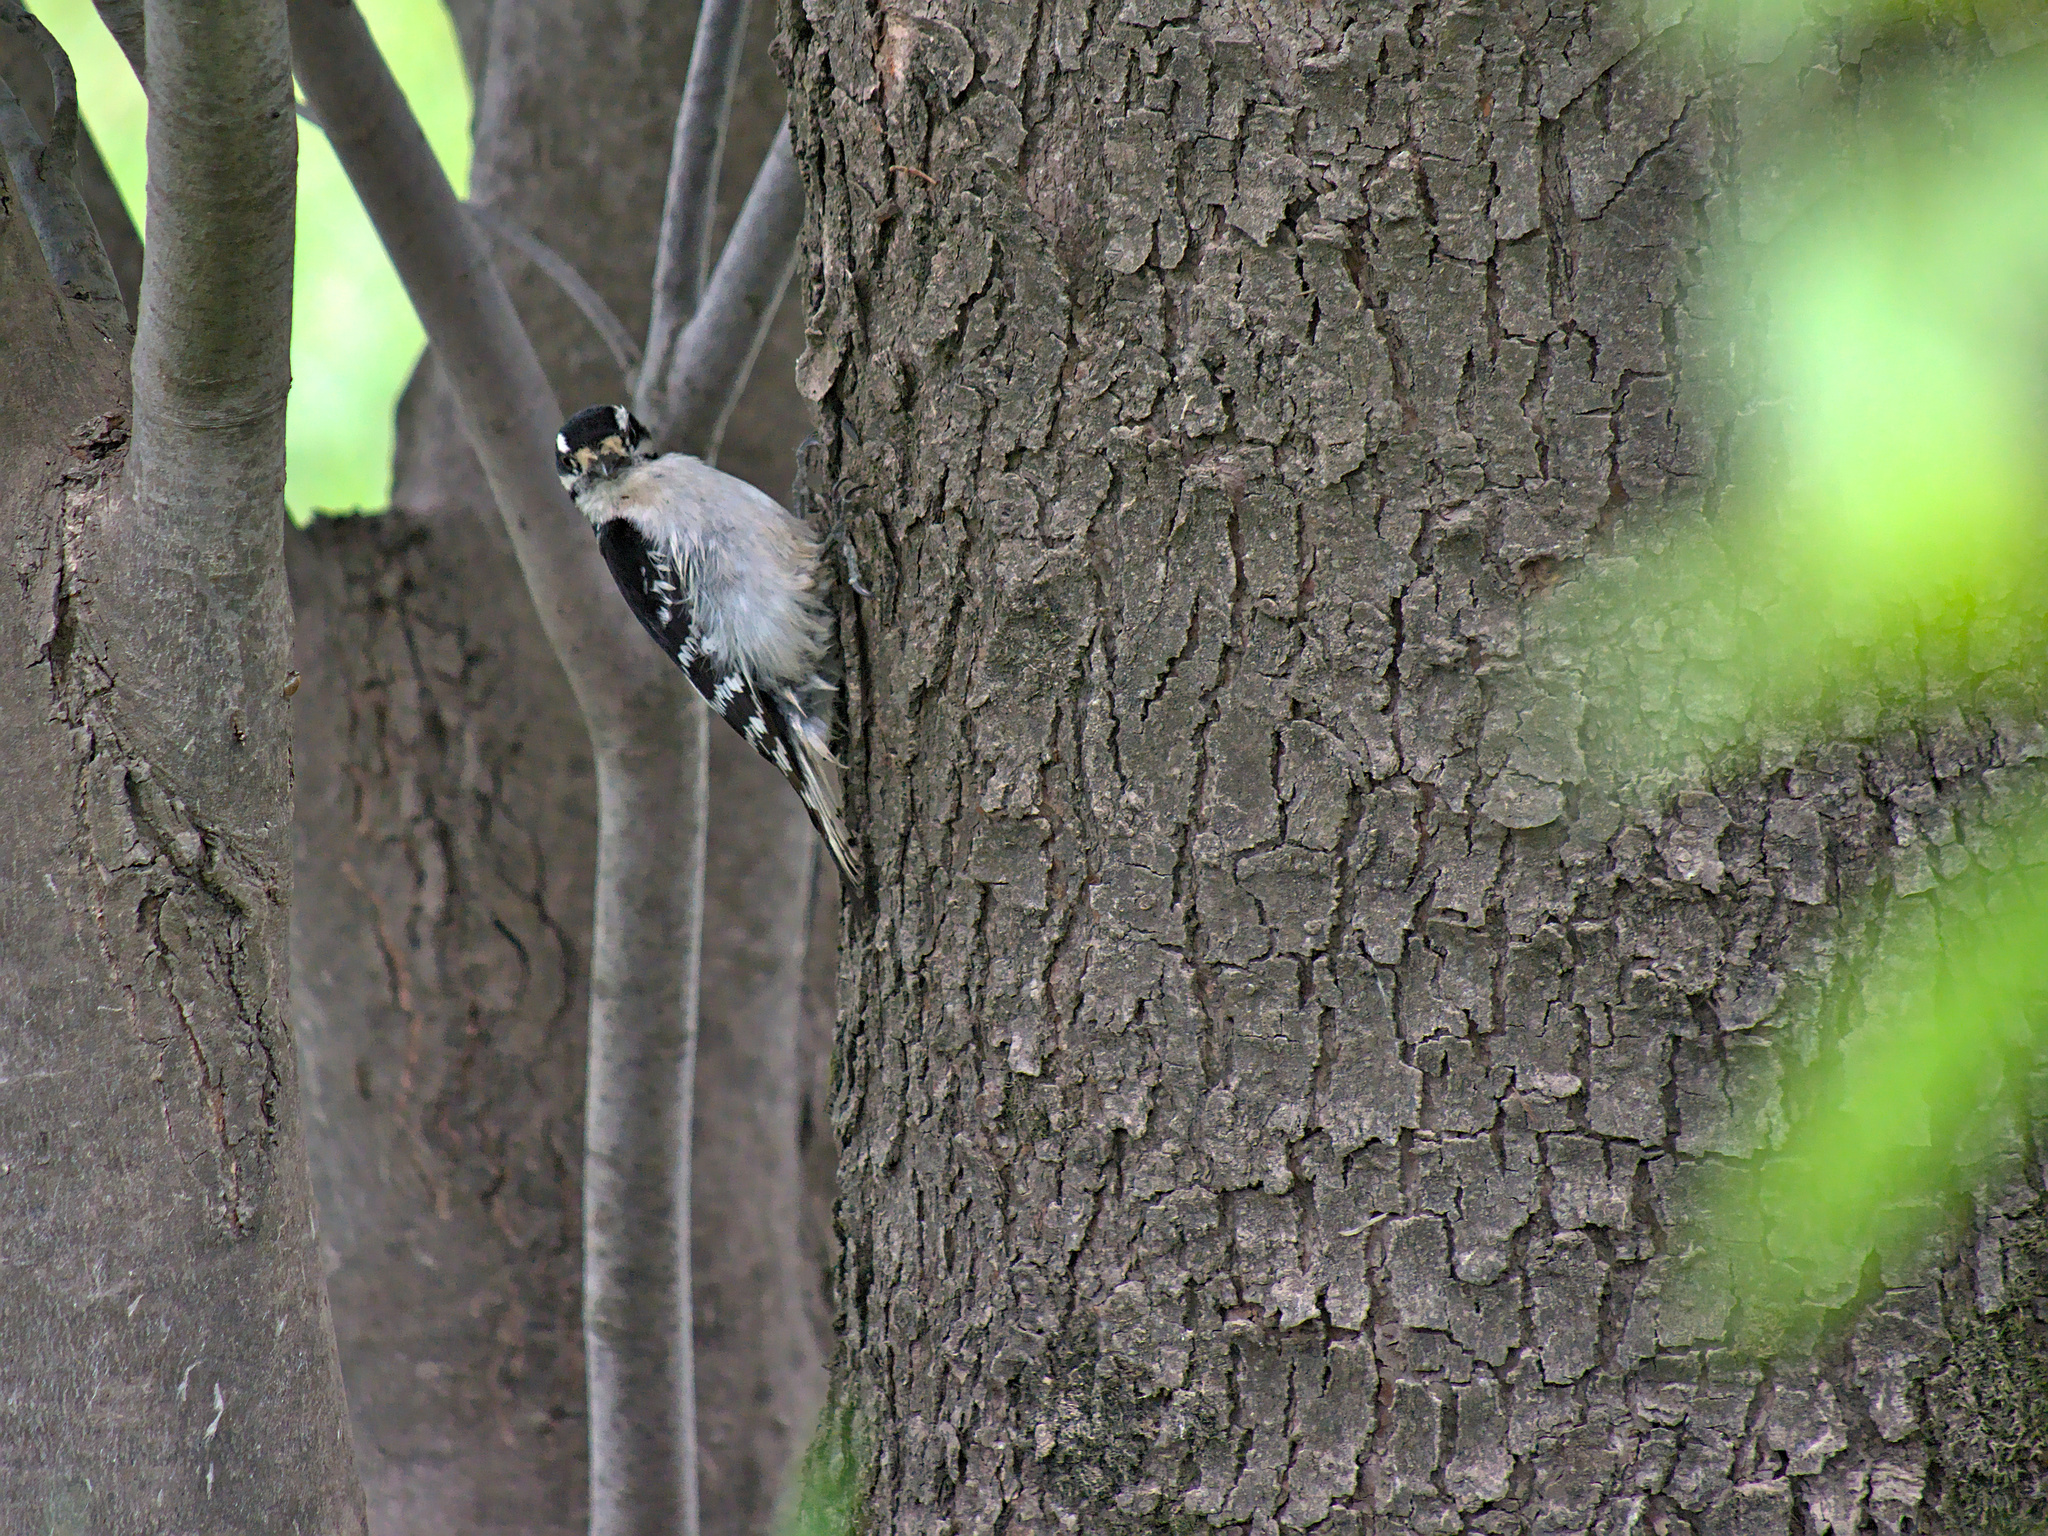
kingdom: Animalia
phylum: Chordata
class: Aves
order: Piciformes
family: Picidae
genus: Dryobates
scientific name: Dryobates pubescens
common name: Downy woodpecker
